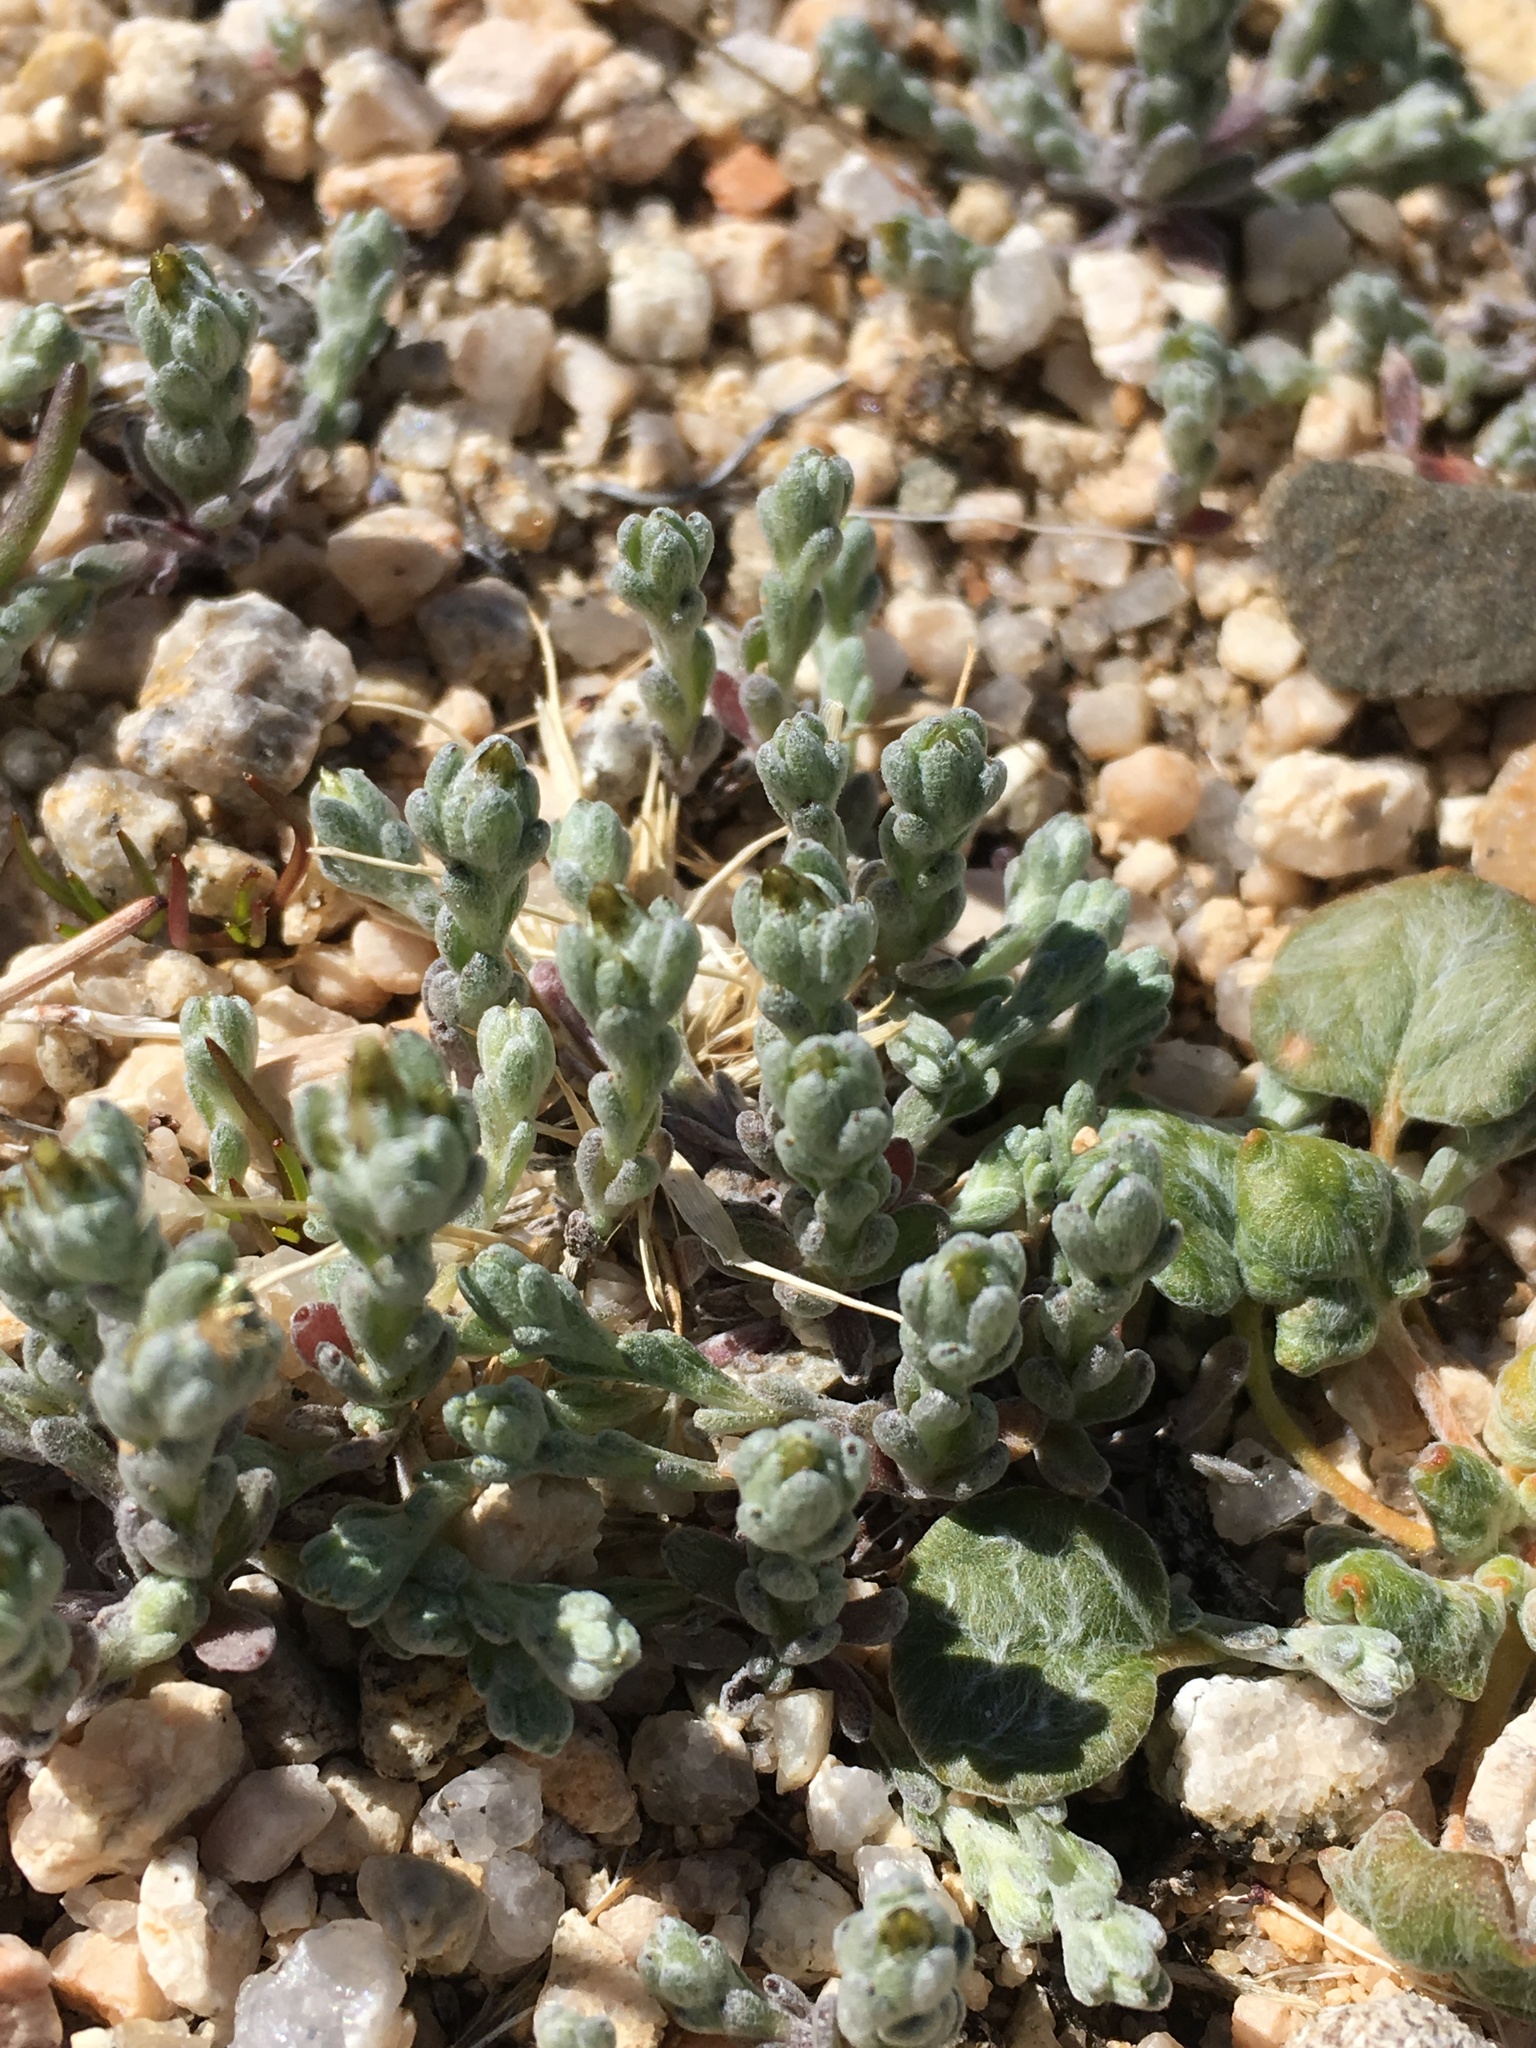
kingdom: Plantae
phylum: Tracheophyta
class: Magnoliopsida
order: Asterales
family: Asteraceae
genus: Logfia
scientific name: Logfia depressa
